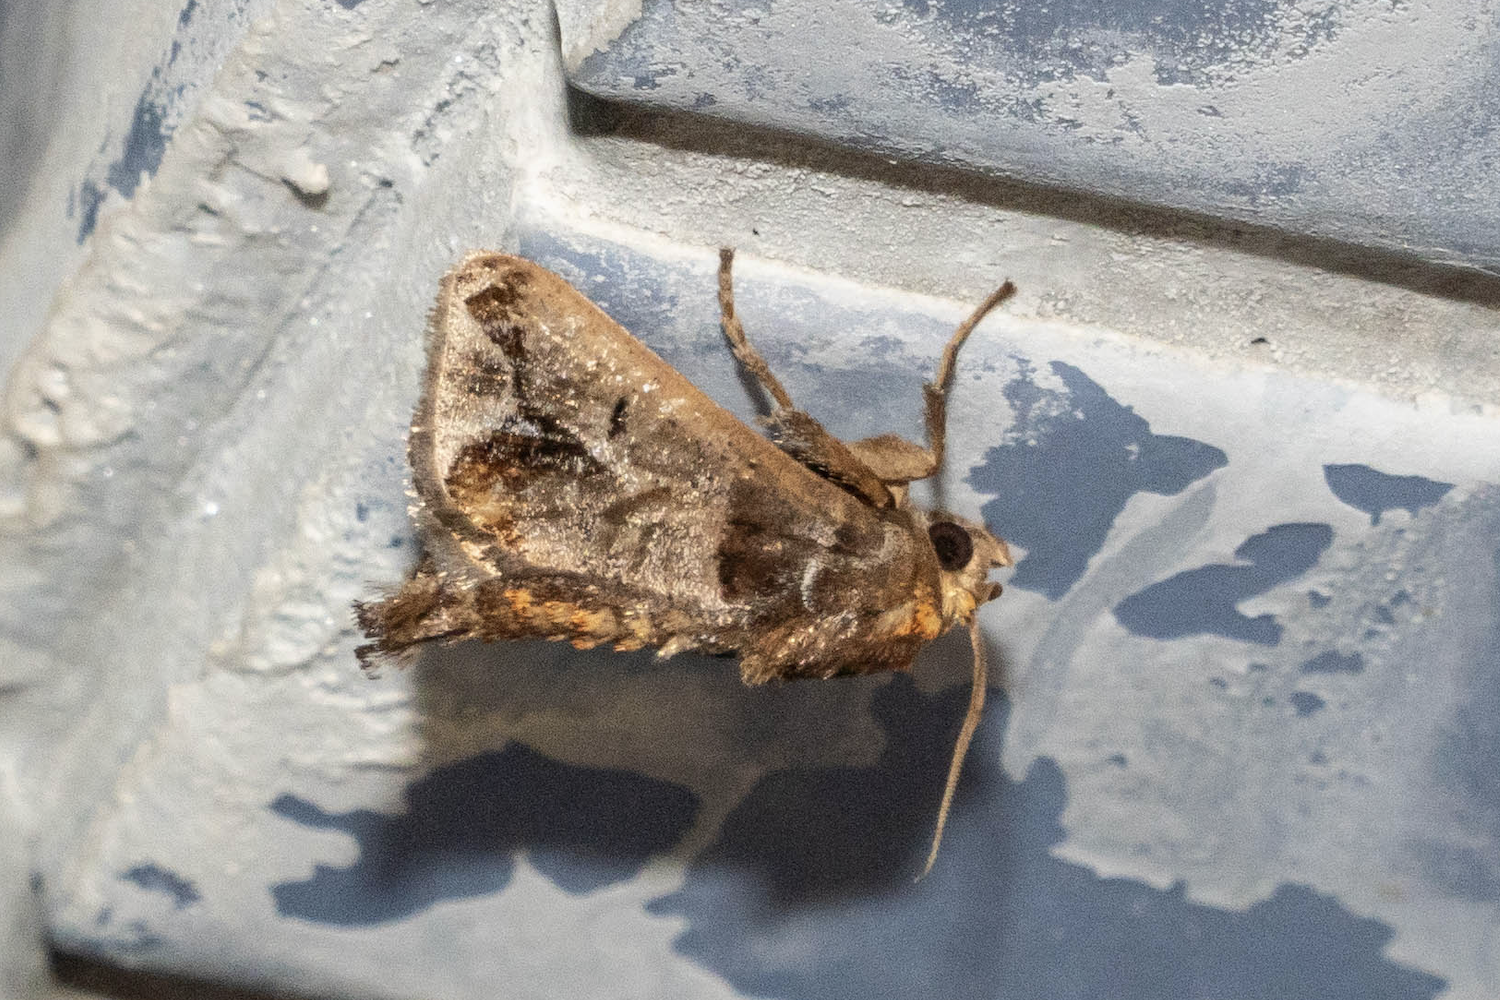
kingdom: Animalia
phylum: Arthropoda
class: Insecta
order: Lepidoptera
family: Limacodidae
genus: Phlossa
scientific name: Phlossa conjuncta
